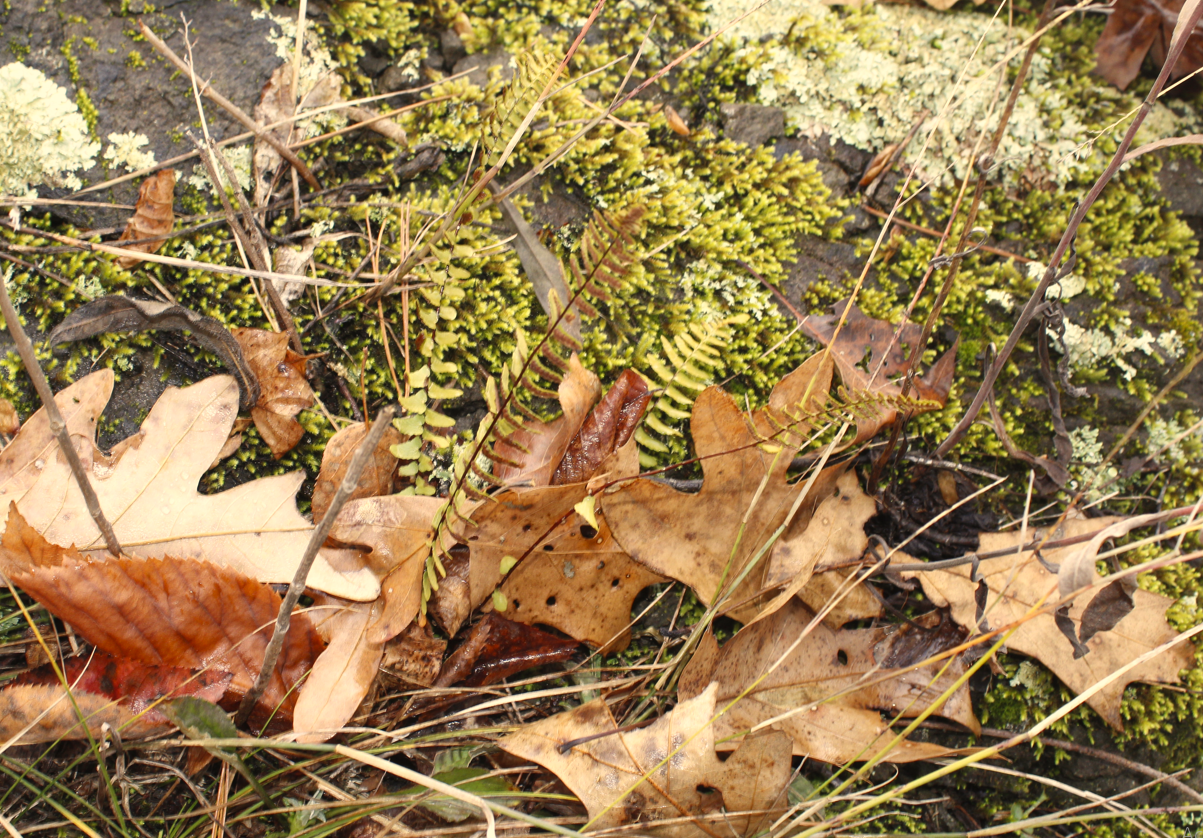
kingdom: Plantae
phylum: Tracheophyta
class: Polypodiopsida
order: Polypodiales
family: Aspleniaceae
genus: Asplenium
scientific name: Asplenium platyneuron
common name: Ebony spleenwort
